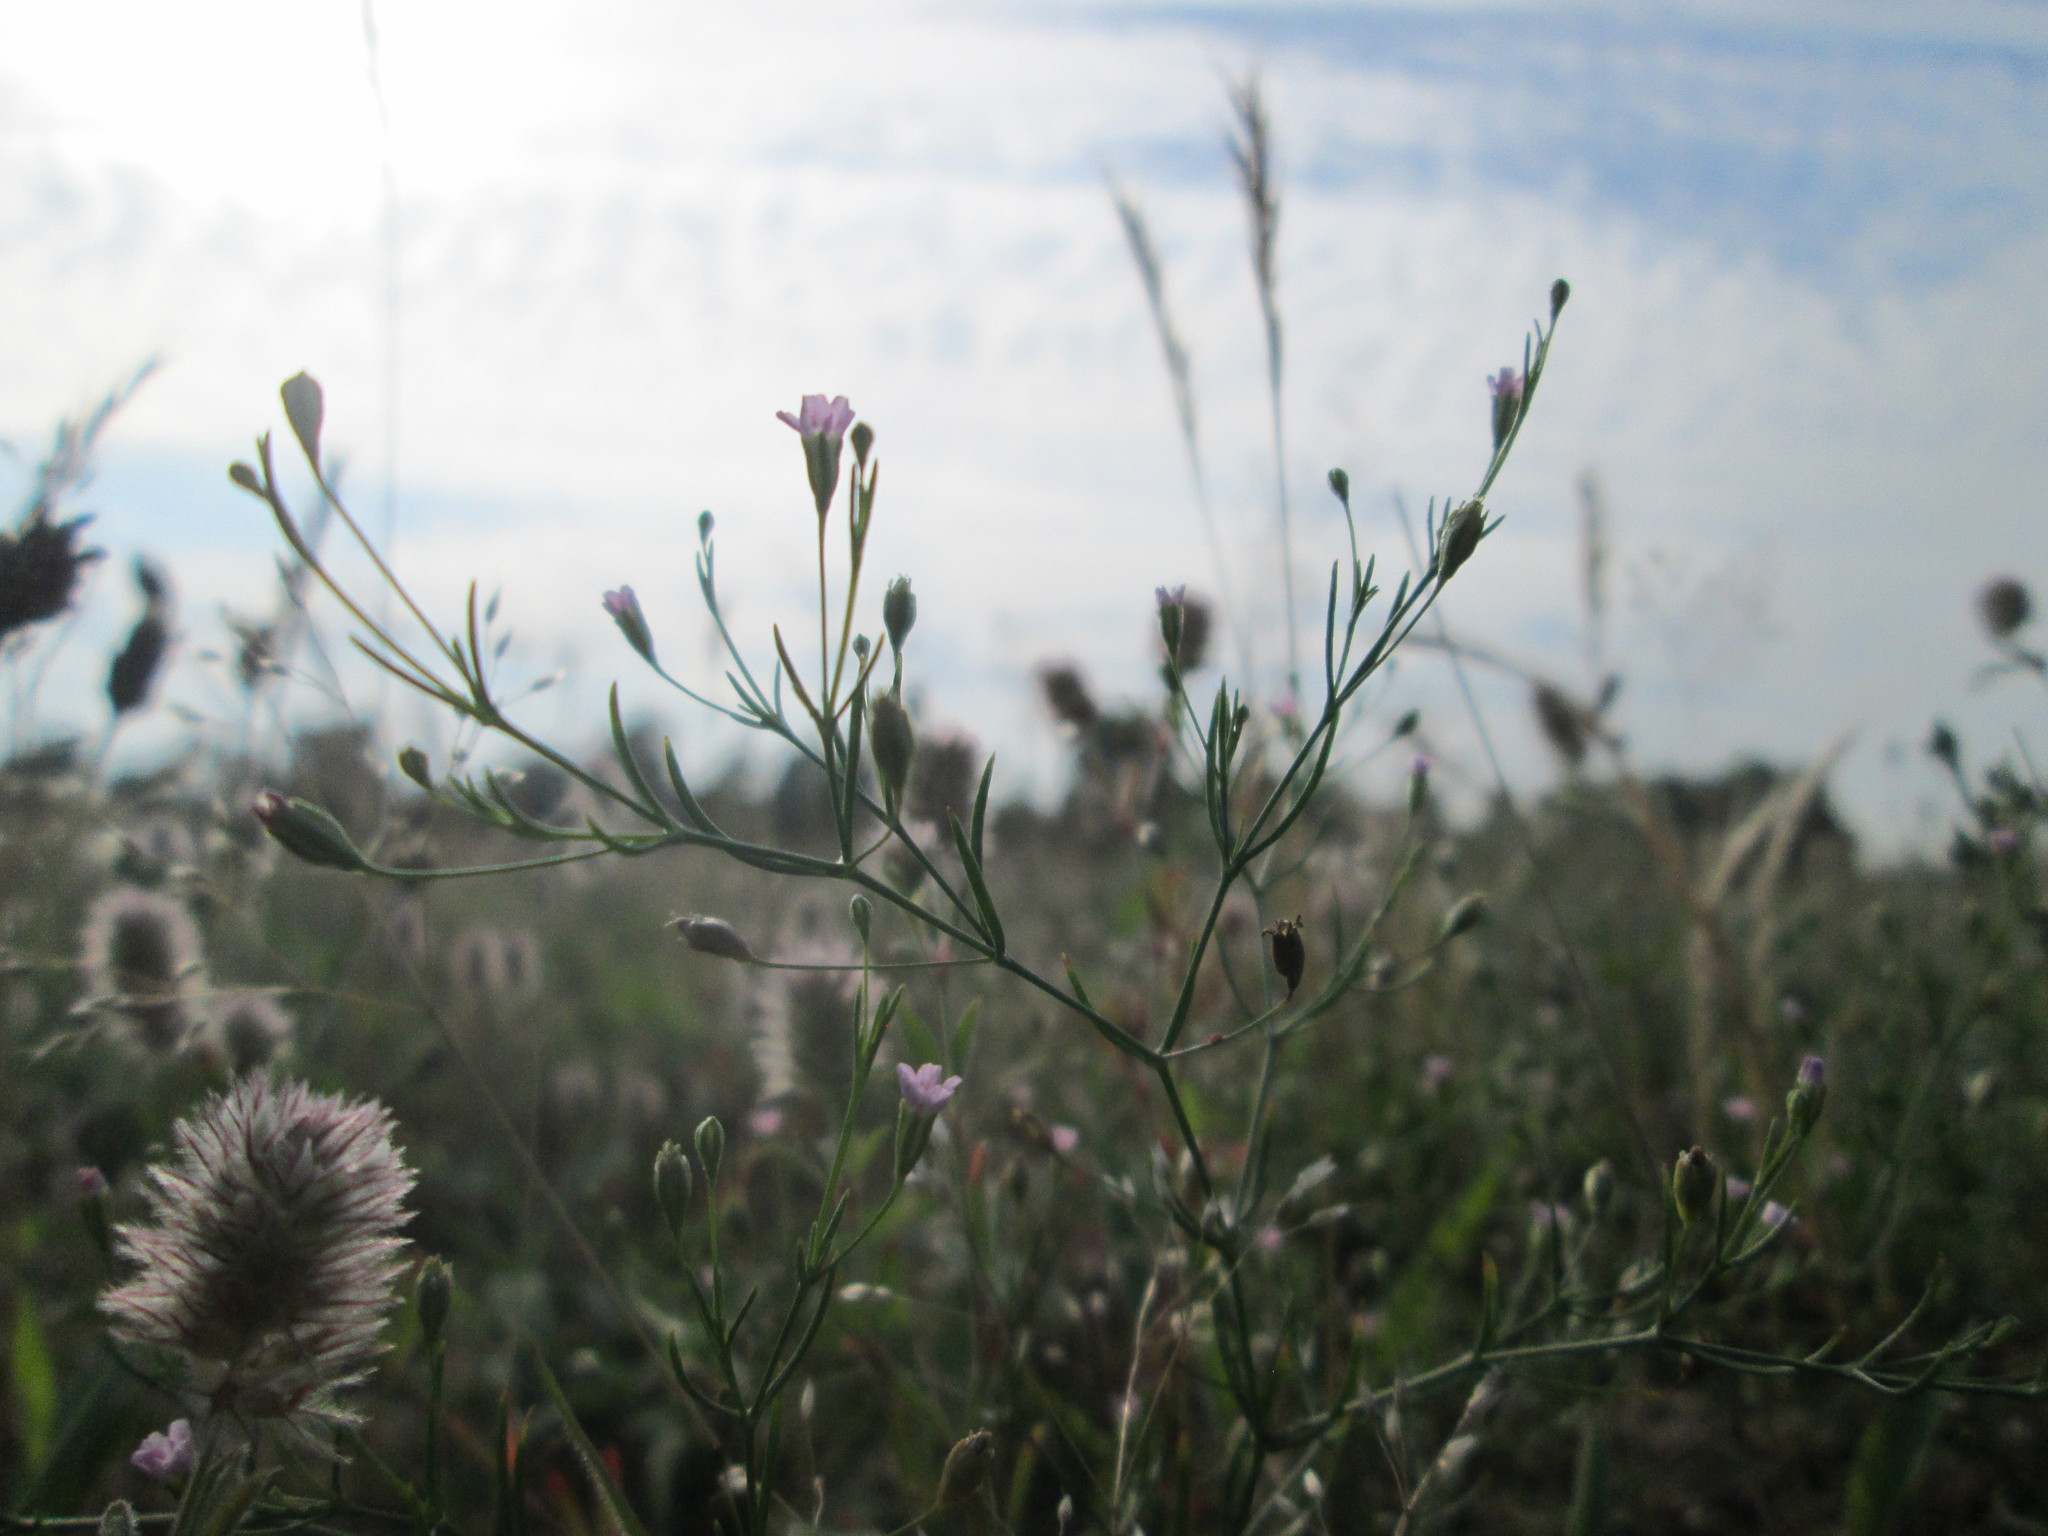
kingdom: Plantae
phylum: Tracheophyta
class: Magnoliopsida
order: Caryophyllales
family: Caryophyllaceae
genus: Psammophiliella
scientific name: Psammophiliella muralis
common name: Cushion baby's-breath
